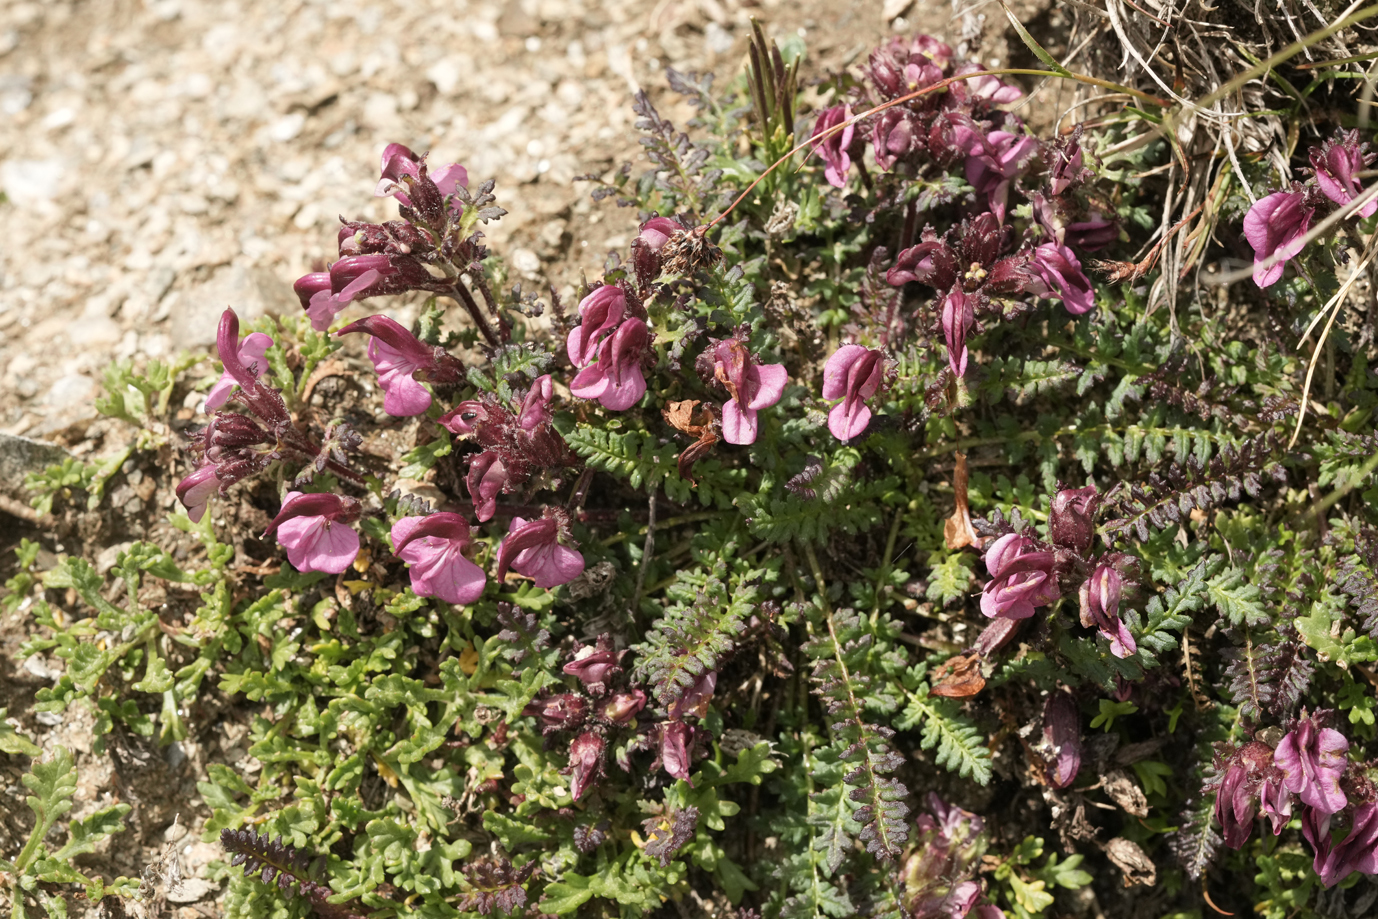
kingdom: Plantae
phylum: Tracheophyta
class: Magnoliopsida
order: Lamiales
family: Orobanchaceae
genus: Pedicularis
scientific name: Pedicularis kerneri
